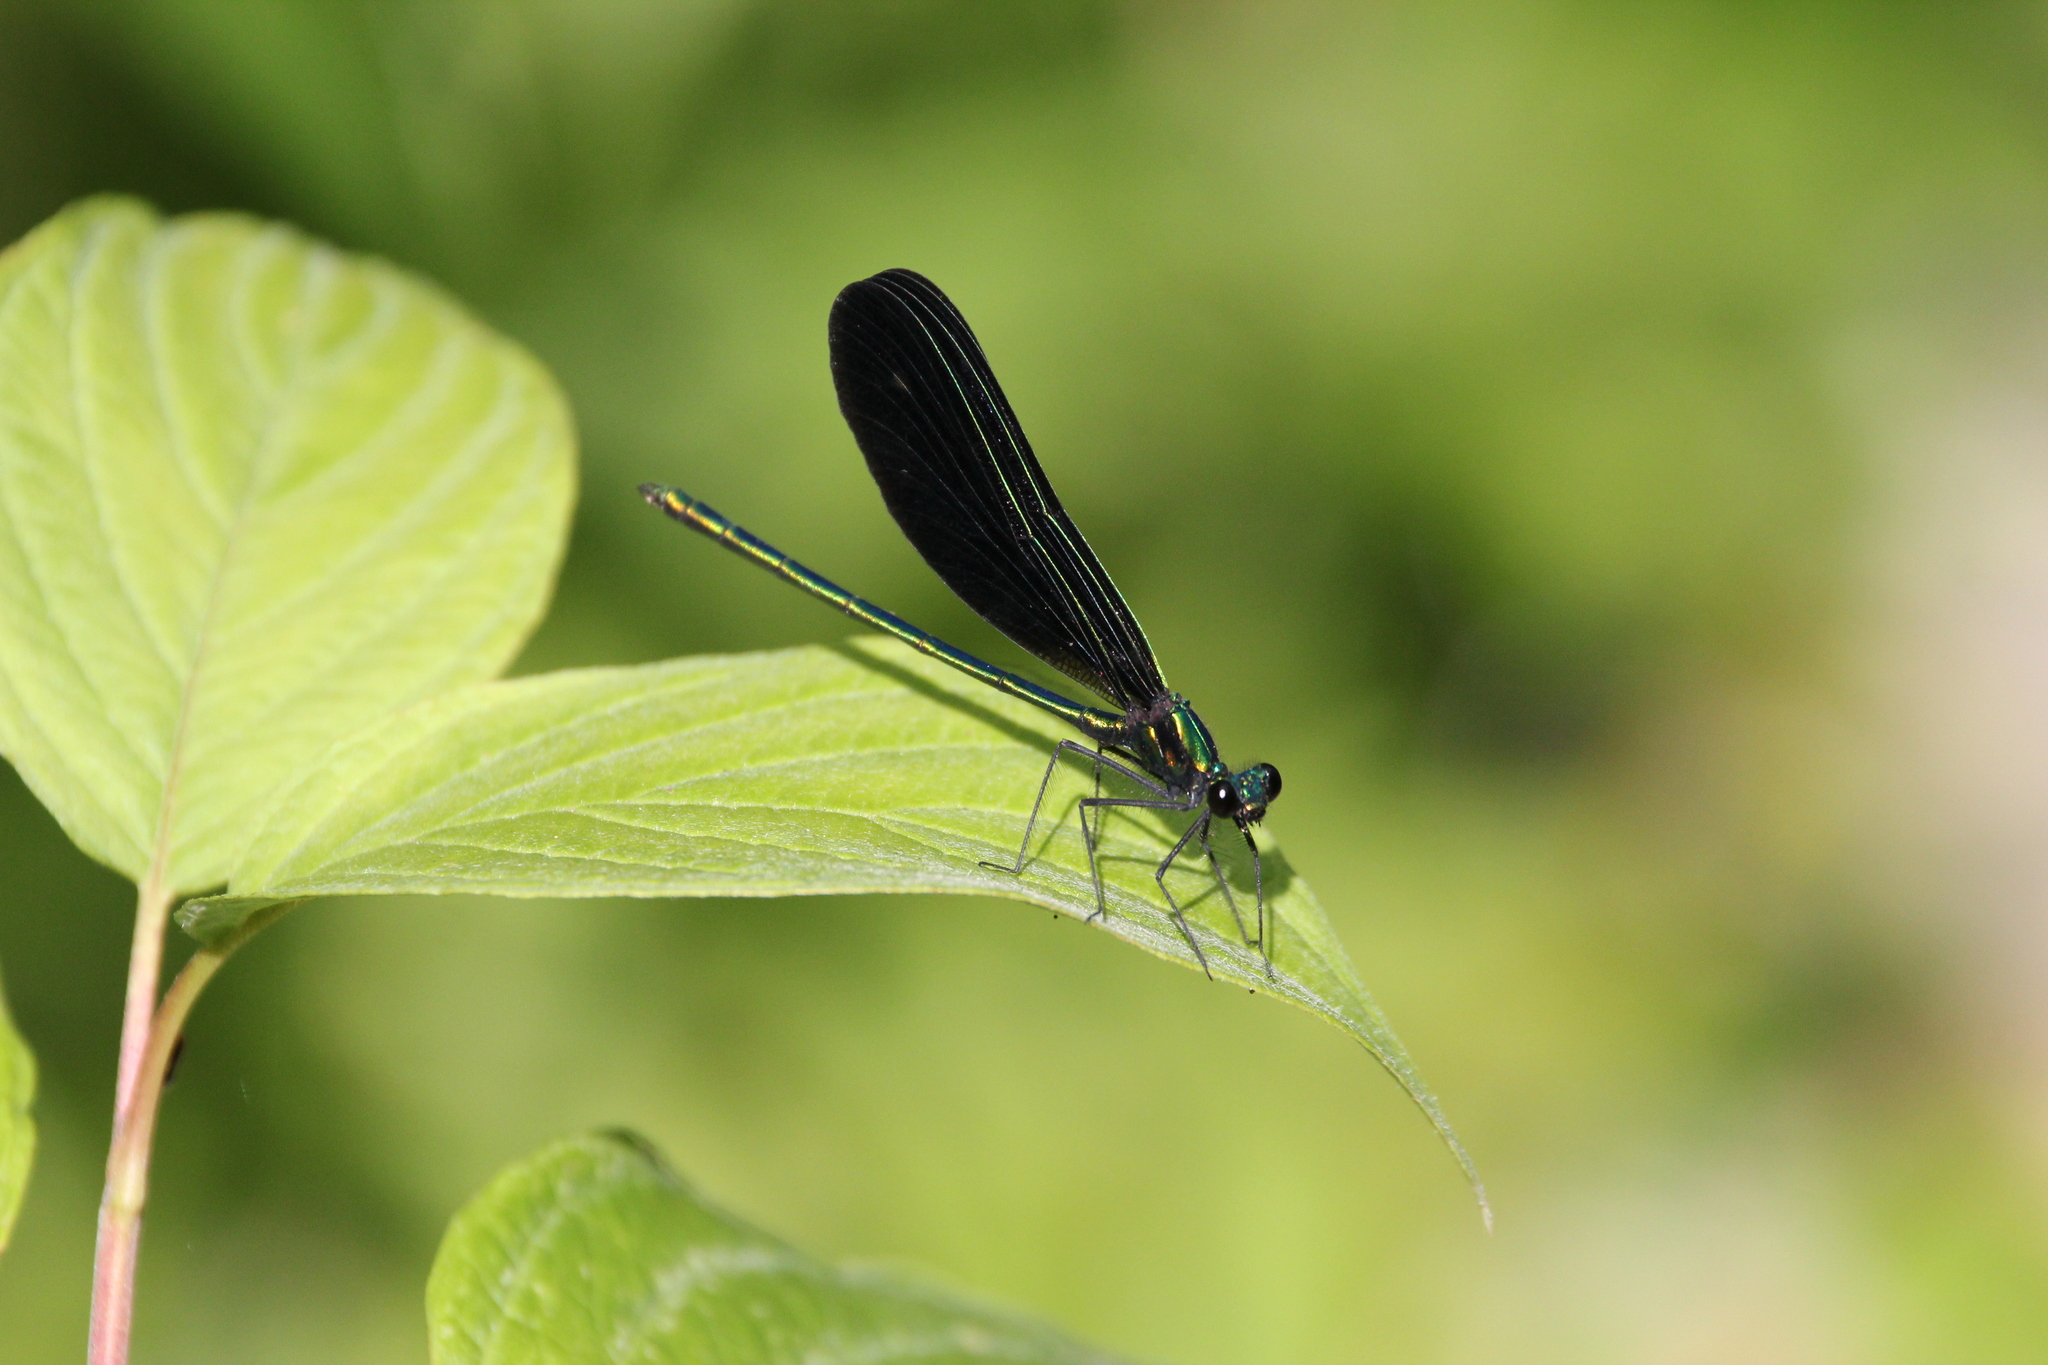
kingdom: Animalia
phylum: Arthropoda
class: Insecta
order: Odonata
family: Calopterygidae
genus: Calopteryx
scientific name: Calopteryx maculata
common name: Ebony jewelwing
